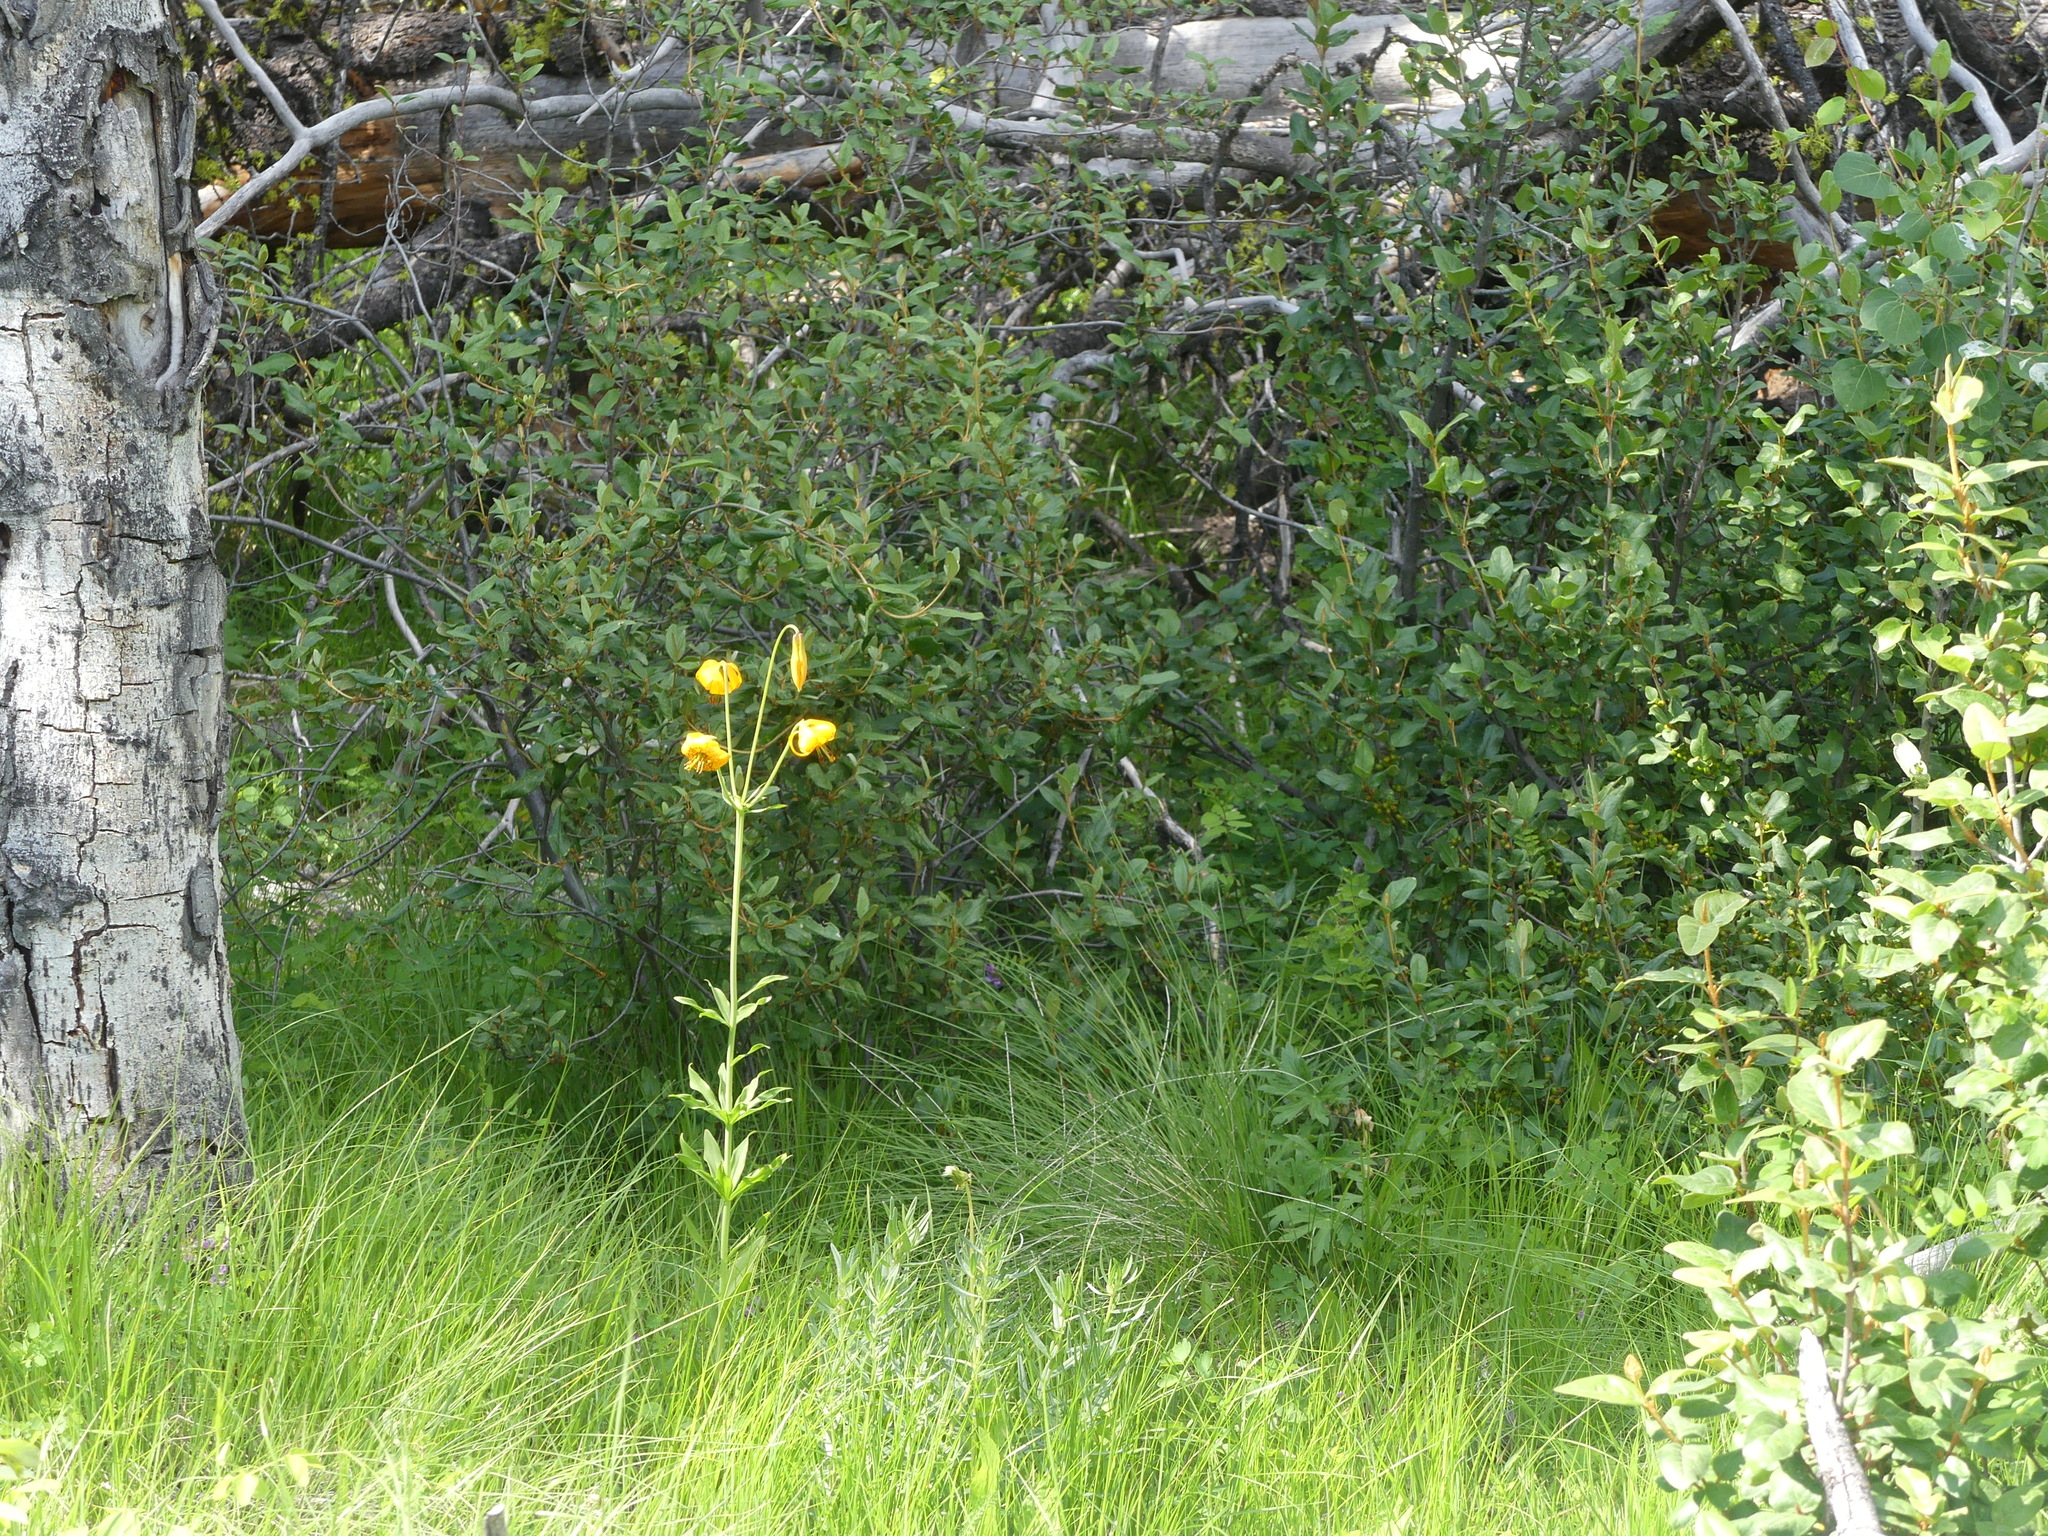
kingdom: Plantae
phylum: Tracheophyta
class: Liliopsida
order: Liliales
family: Liliaceae
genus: Lilium
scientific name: Lilium columbianum
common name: Columbia lily
